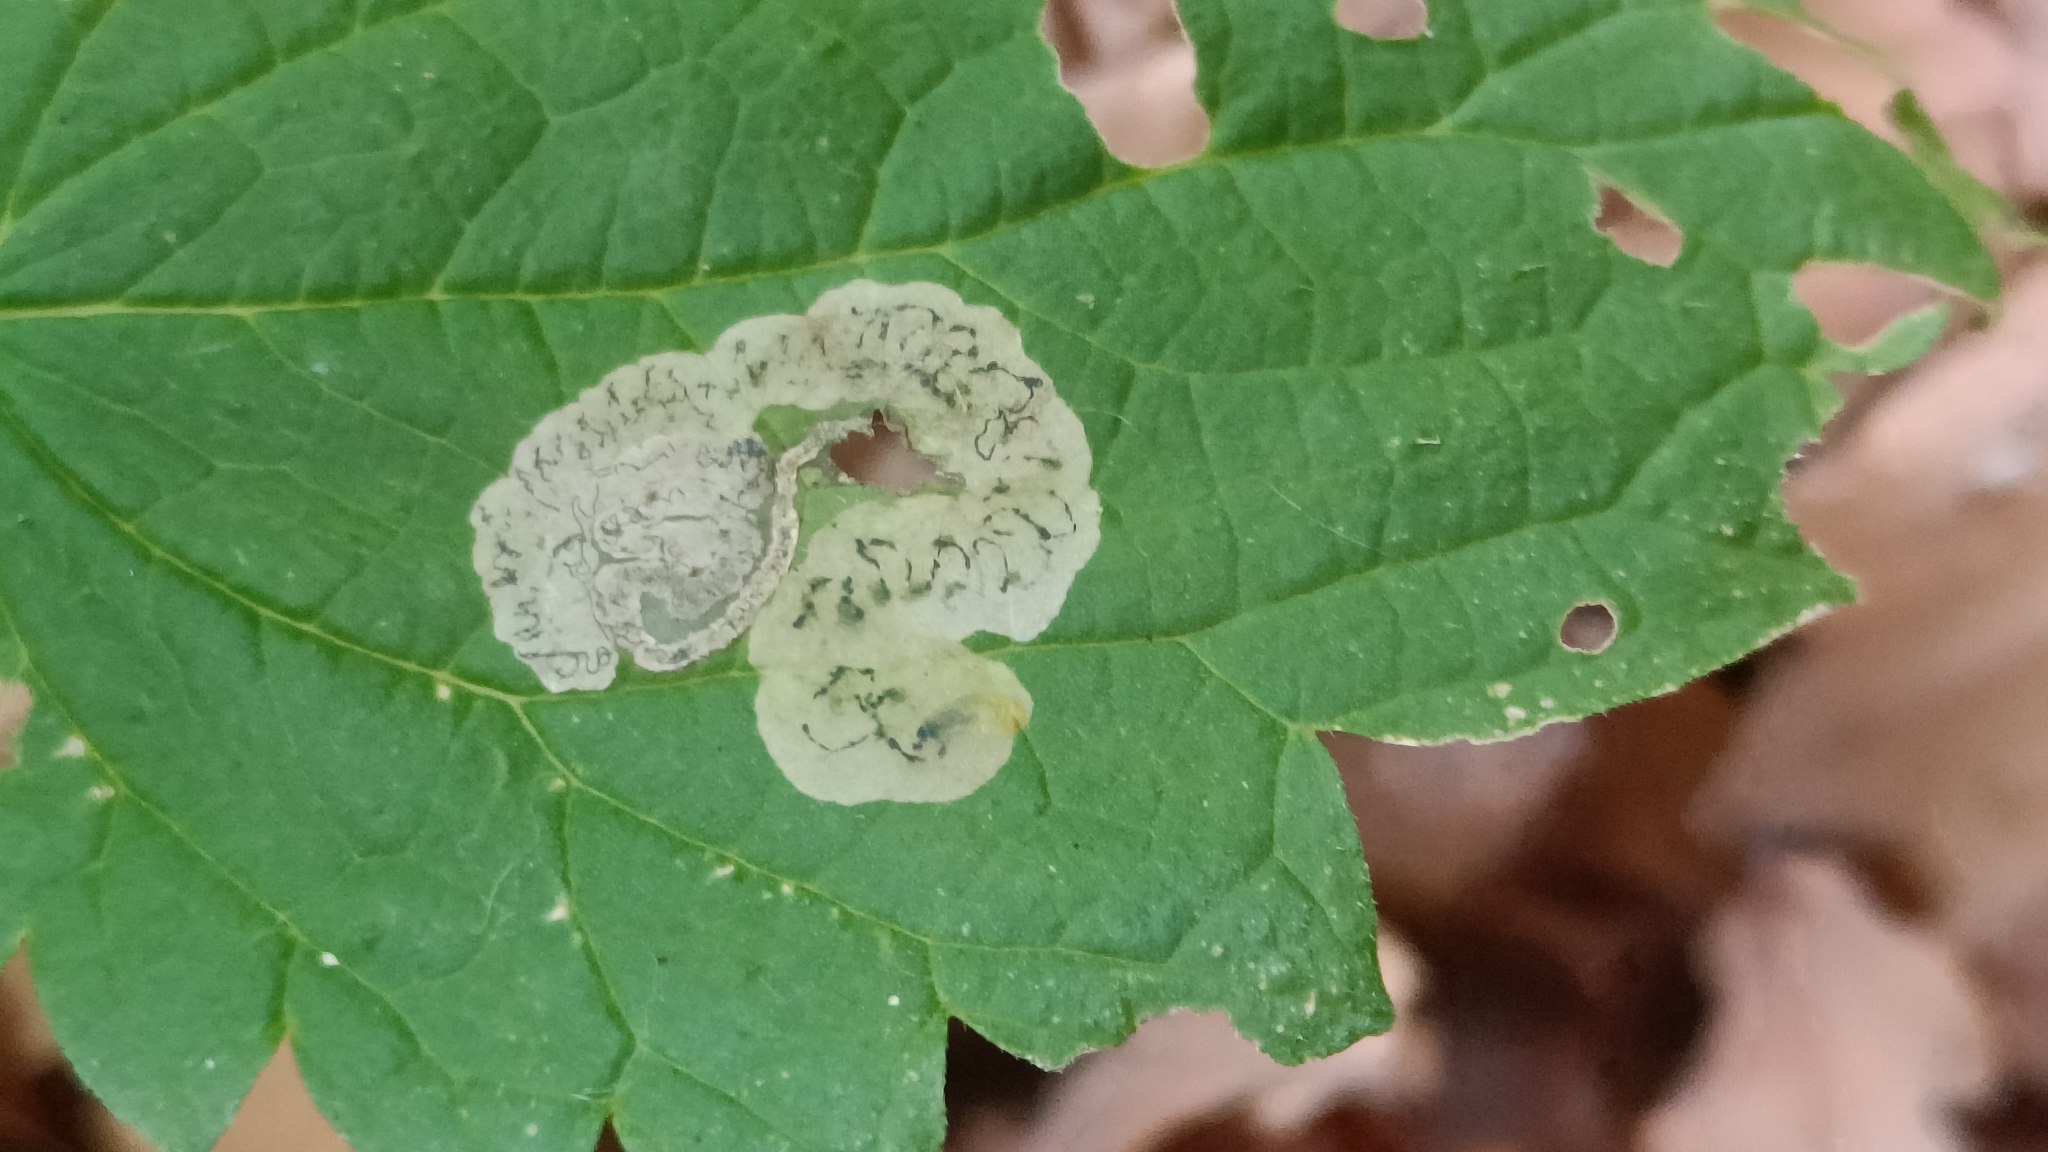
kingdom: Animalia
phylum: Arthropoda
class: Insecta
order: Diptera
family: Agromyzidae
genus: Agromyza
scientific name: Agromyza anthracina
